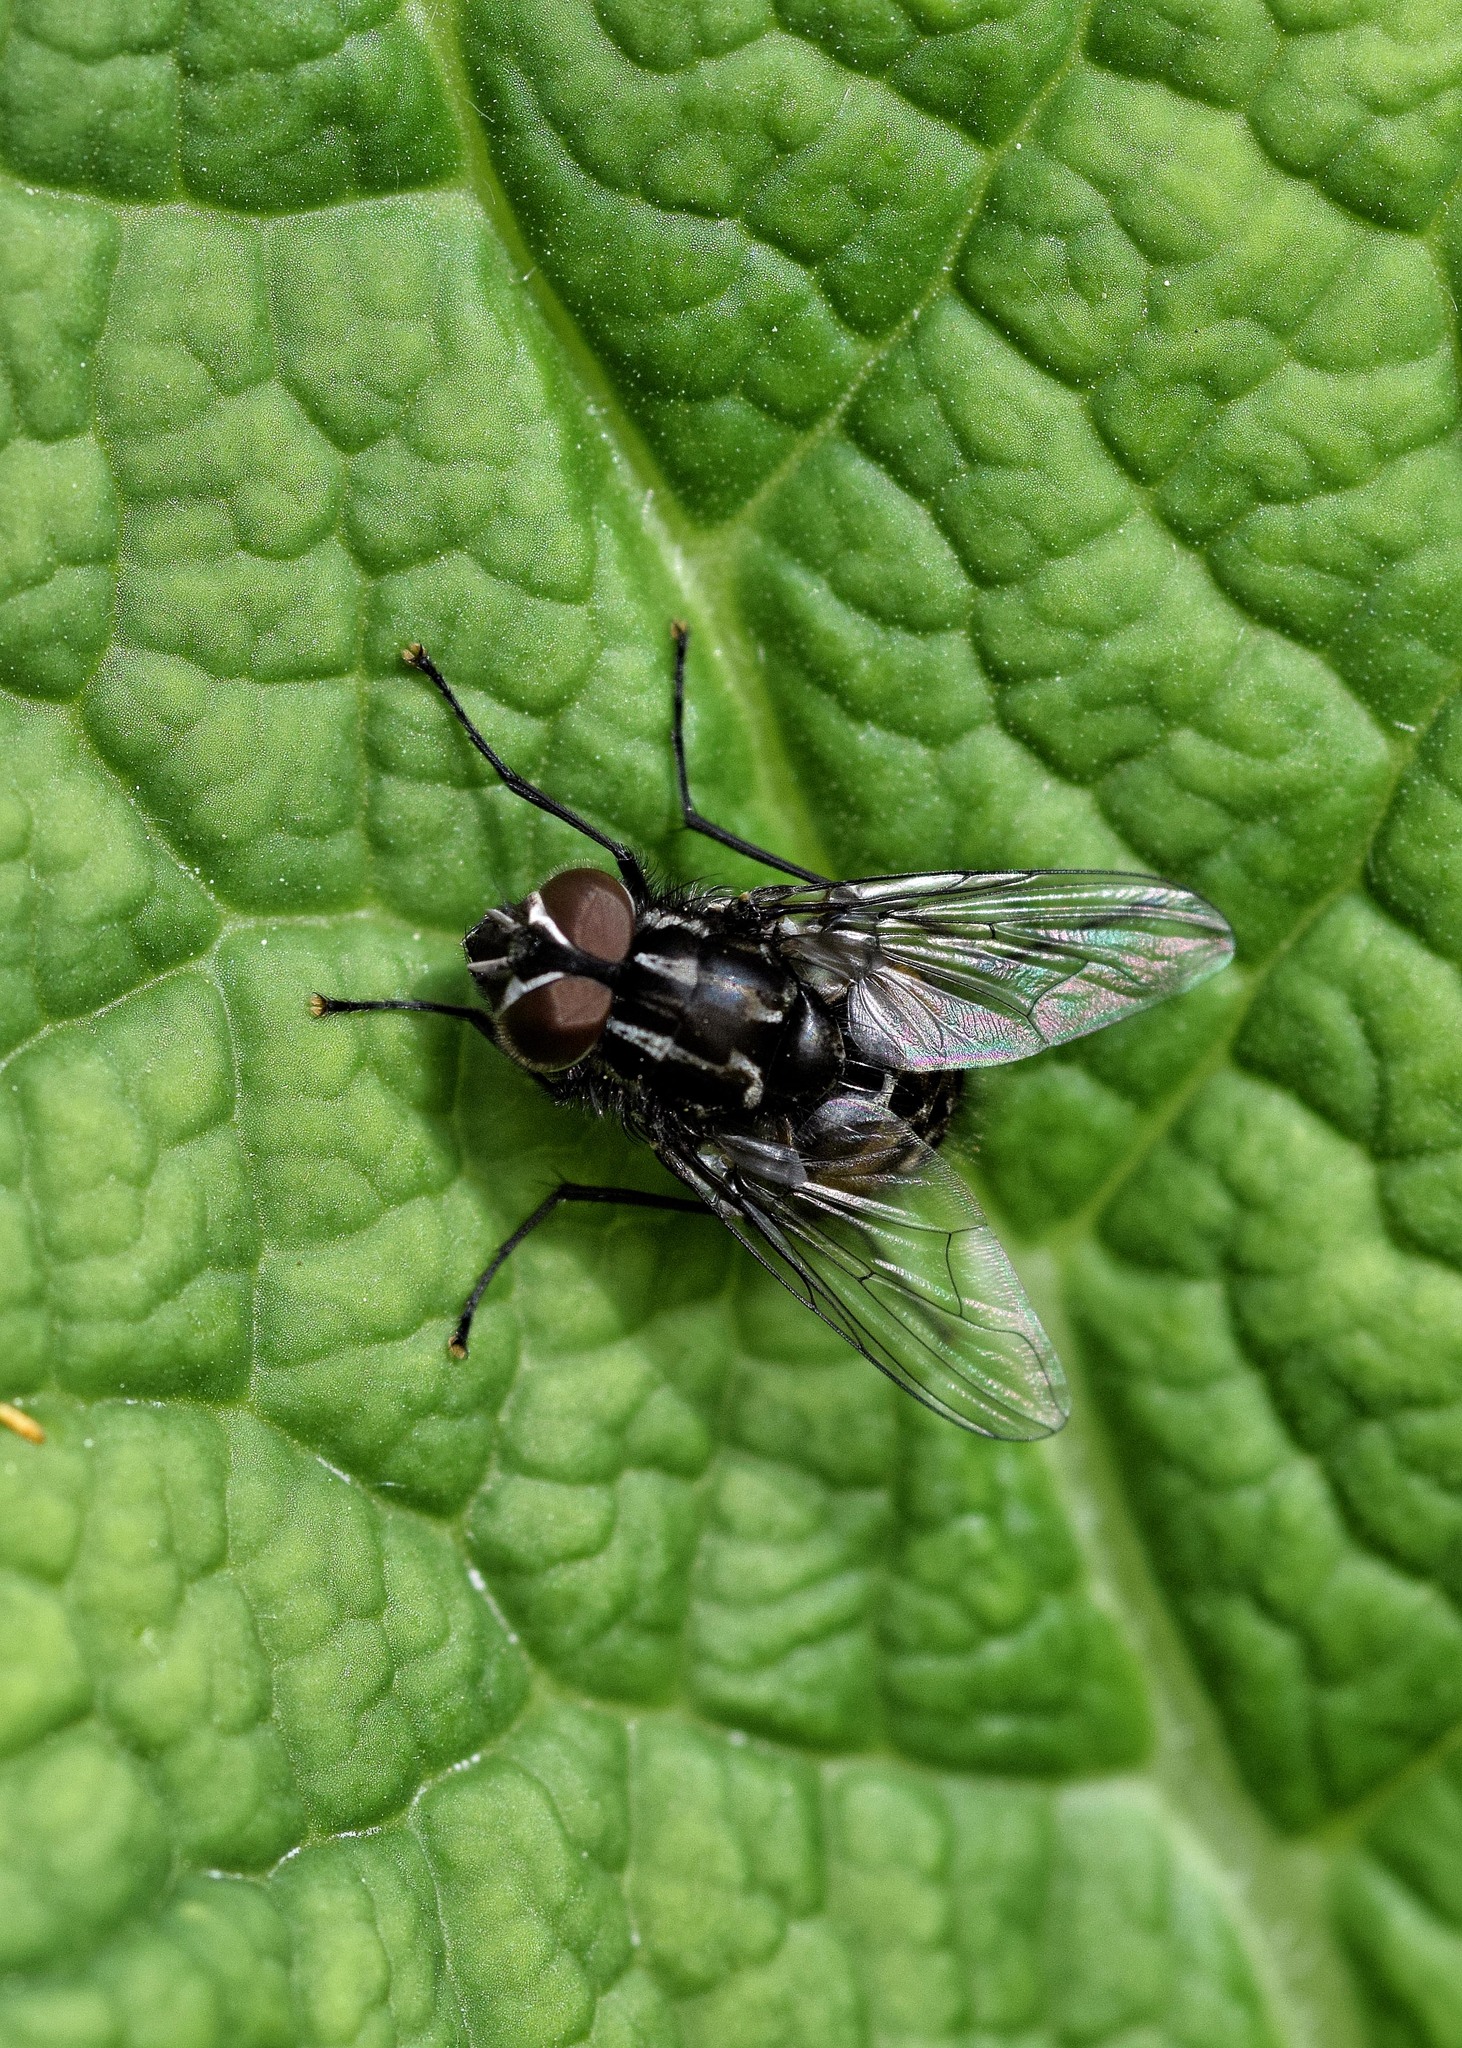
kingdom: Animalia
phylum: Arthropoda
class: Insecta
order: Diptera
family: Muscidae
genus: Graphomya
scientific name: Graphomya maculata
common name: Muscid fly
